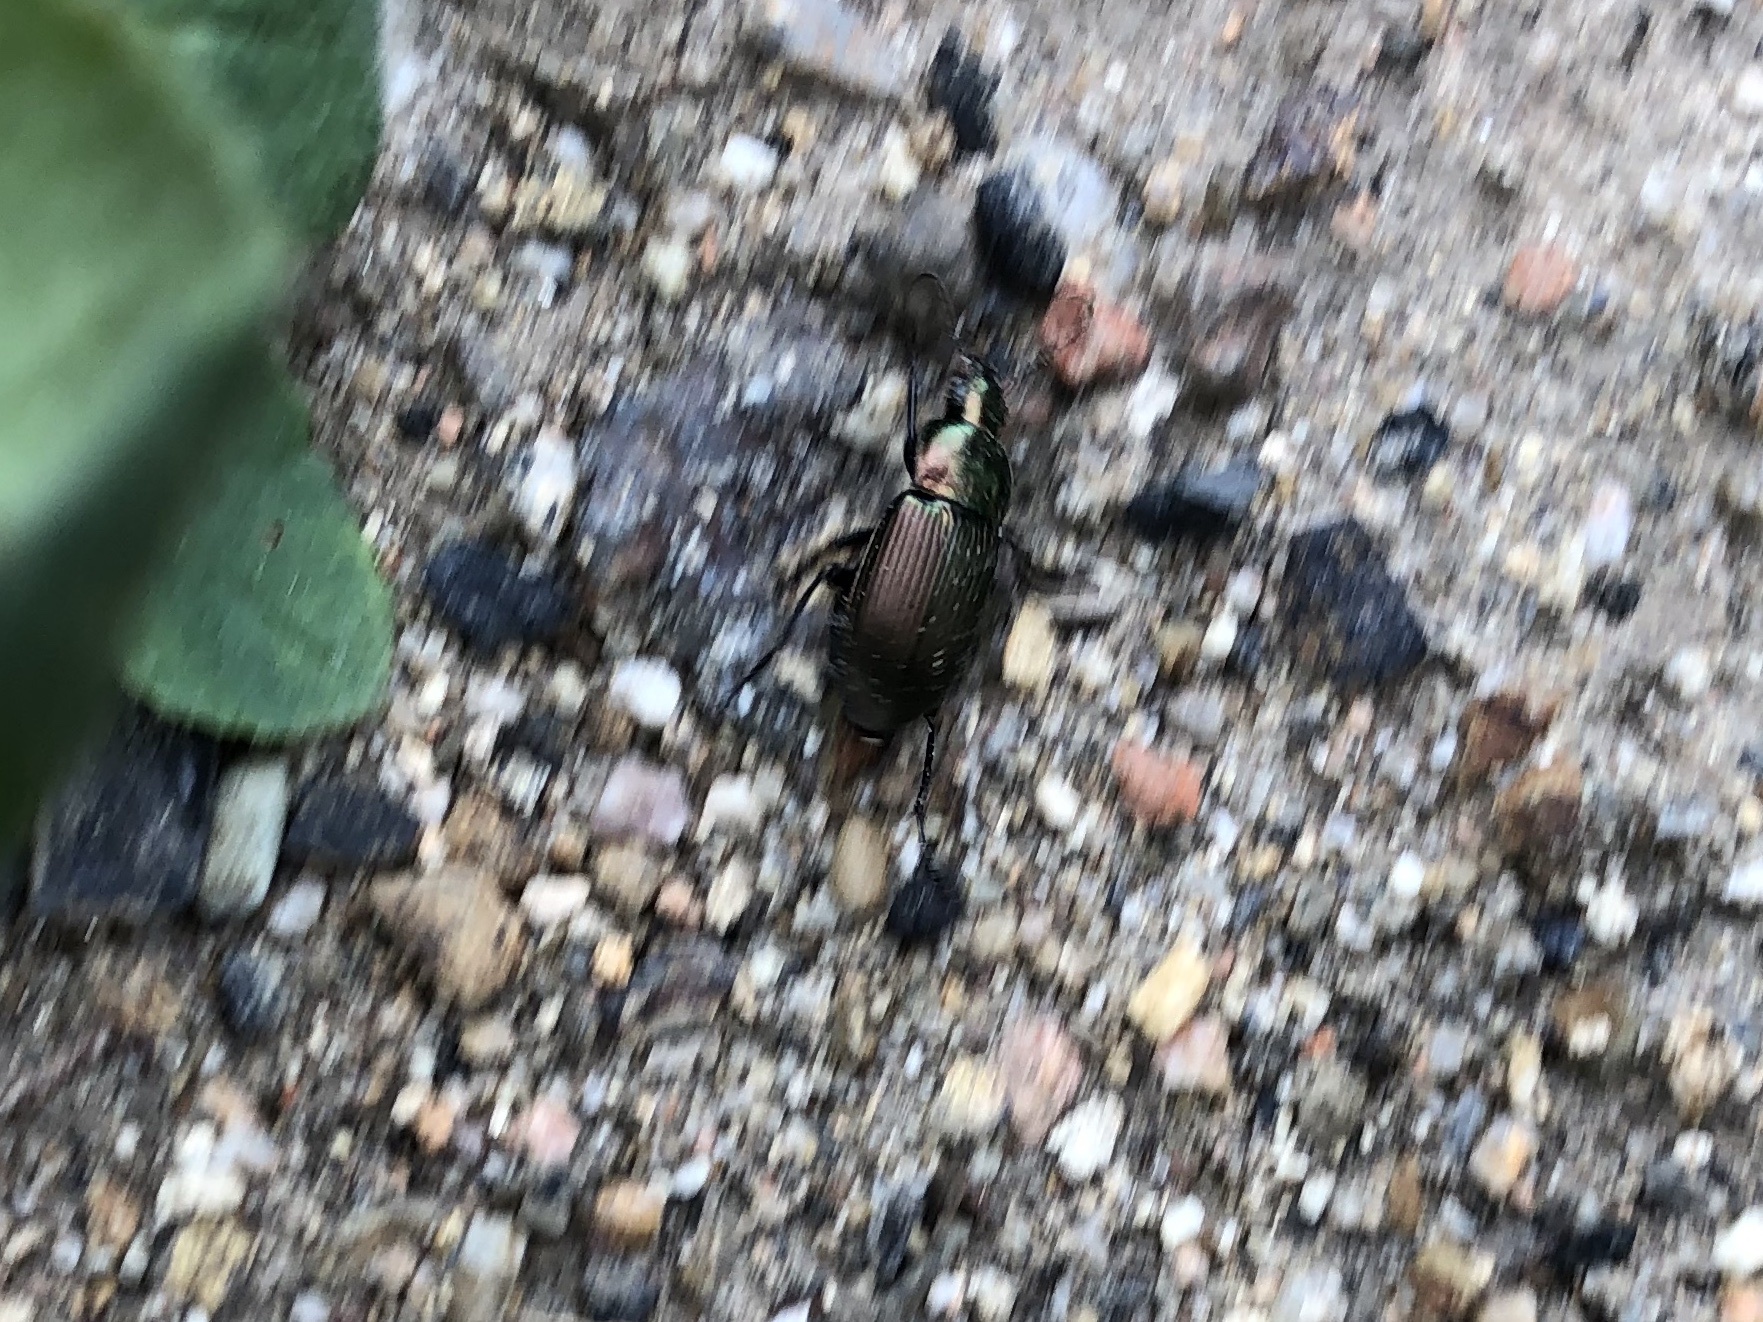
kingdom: Animalia
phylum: Arthropoda
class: Insecta
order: Coleoptera
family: Carabidae
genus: Poecilus
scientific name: Poecilus cupreus
